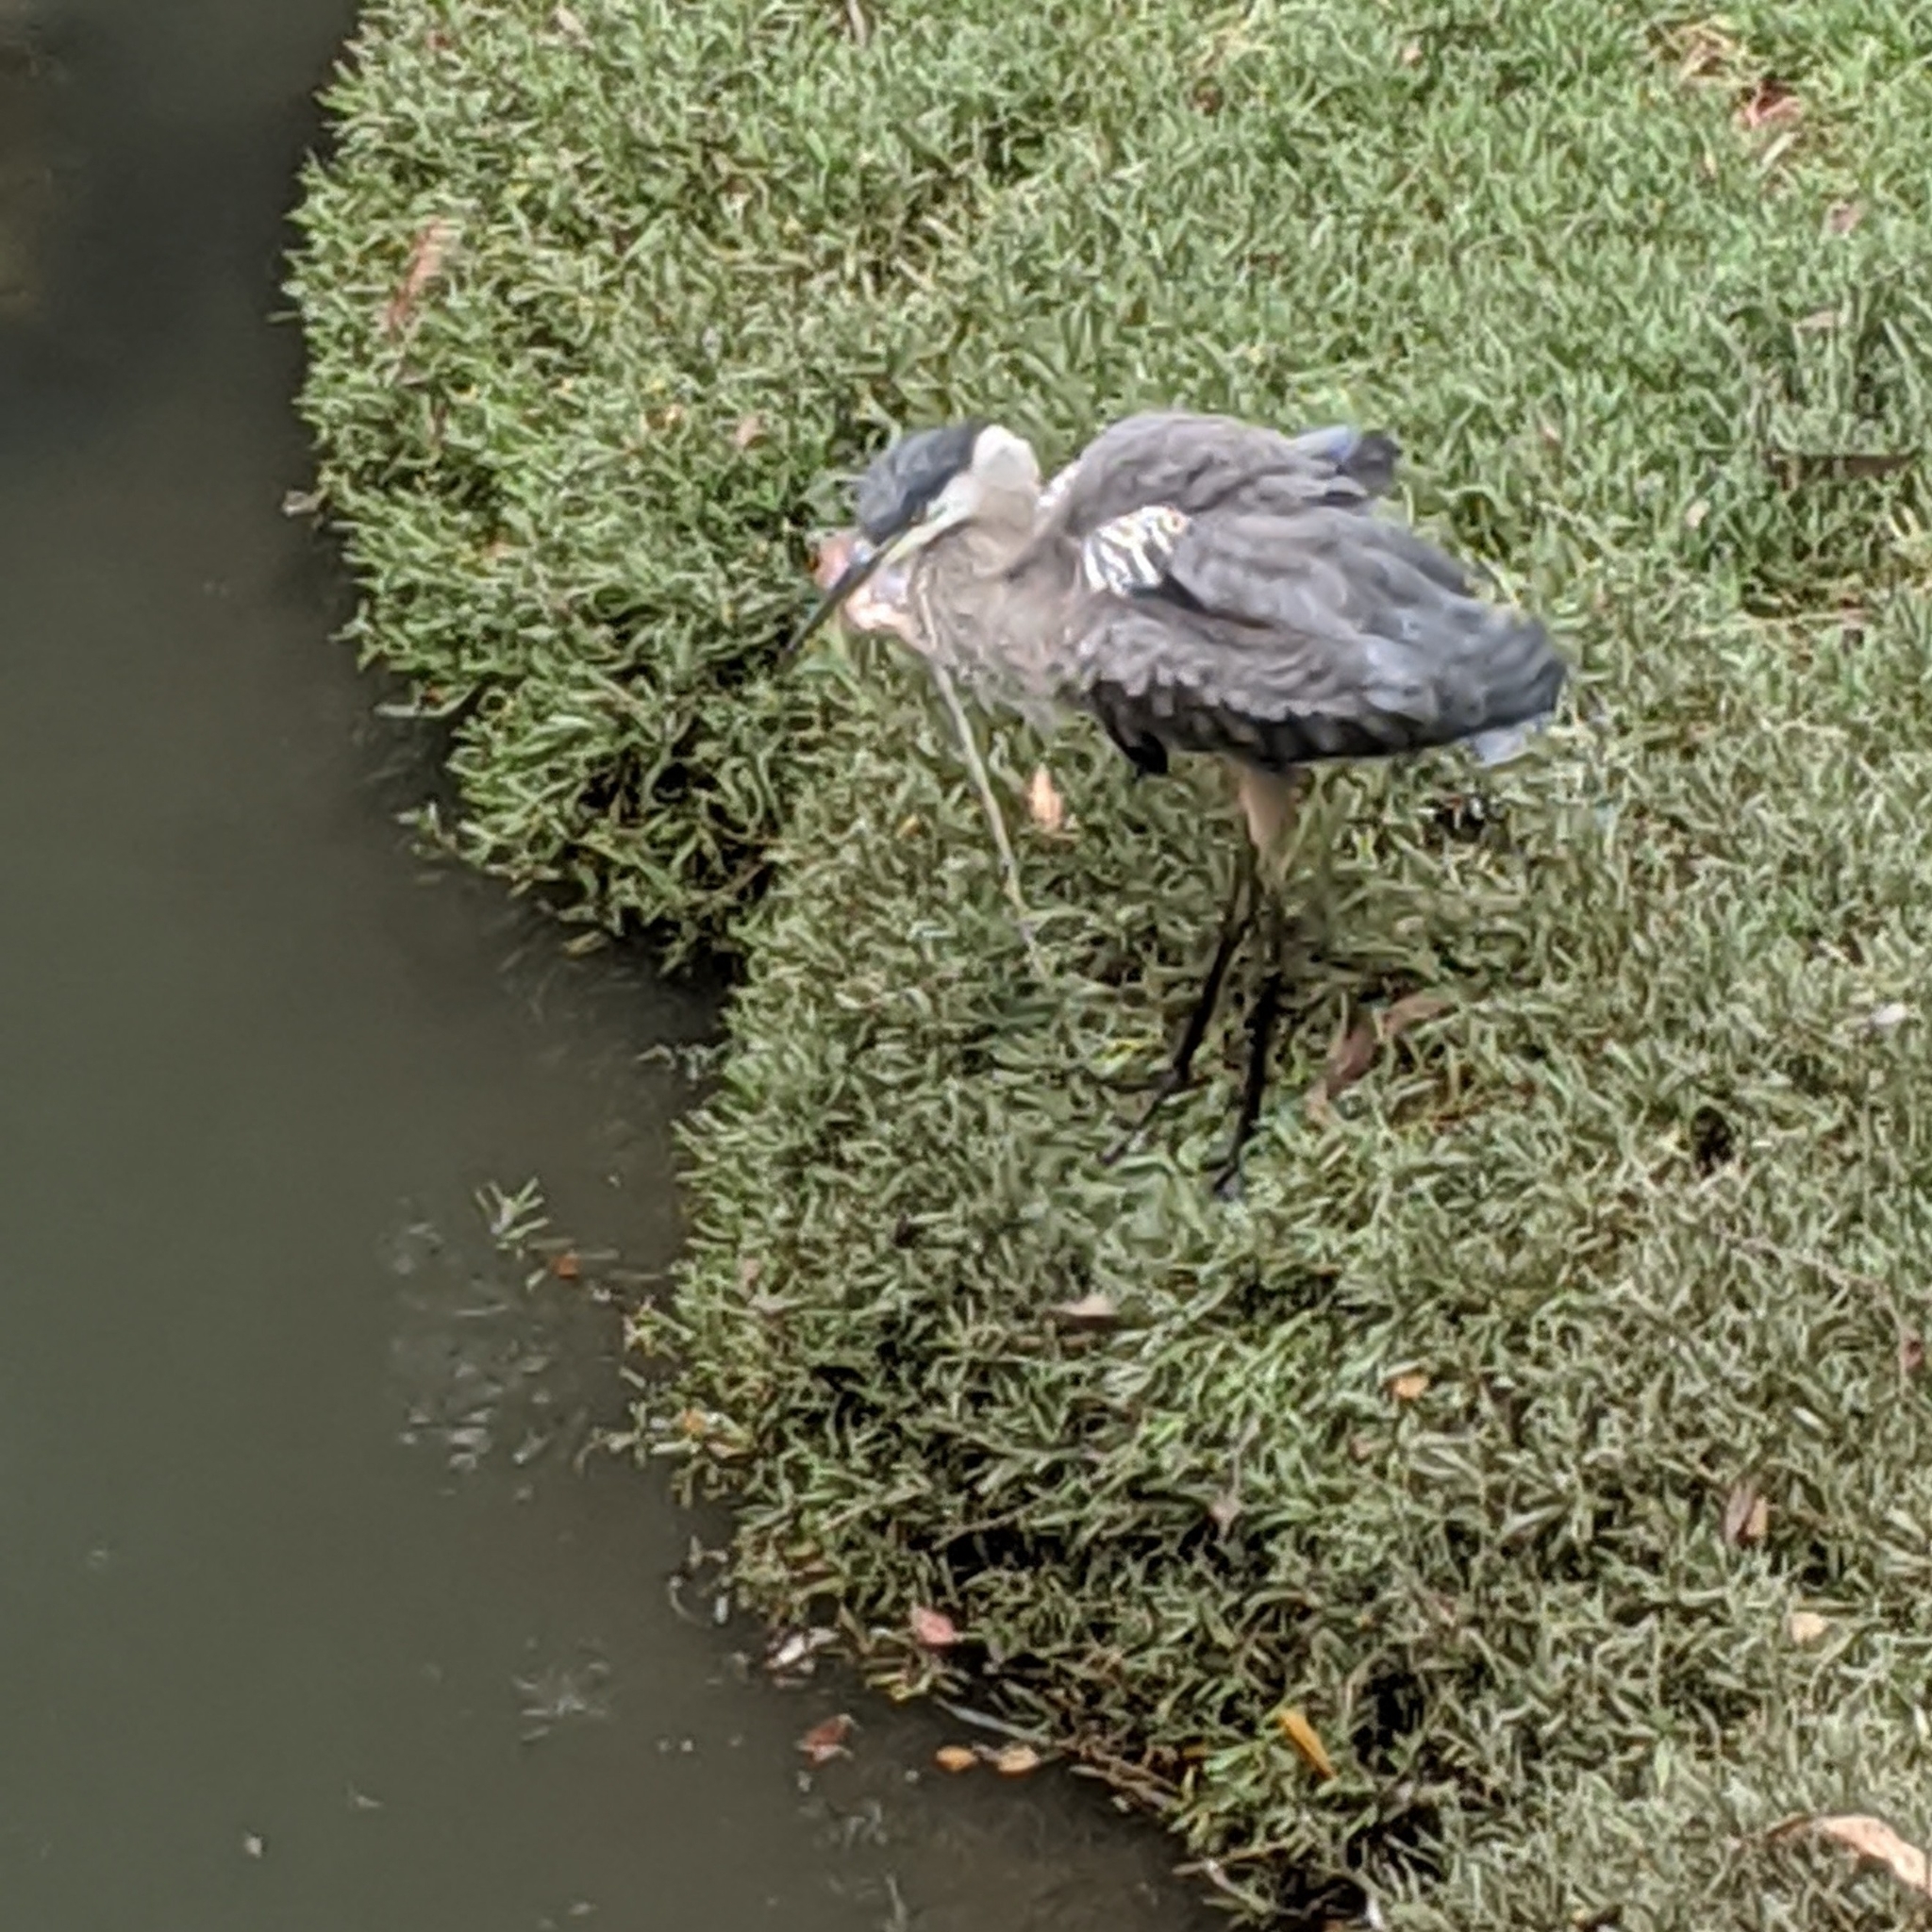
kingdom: Animalia
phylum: Chordata
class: Aves
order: Pelecaniformes
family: Ardeidae
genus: Ardea
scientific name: Ardea herodias
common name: Great blue heron
